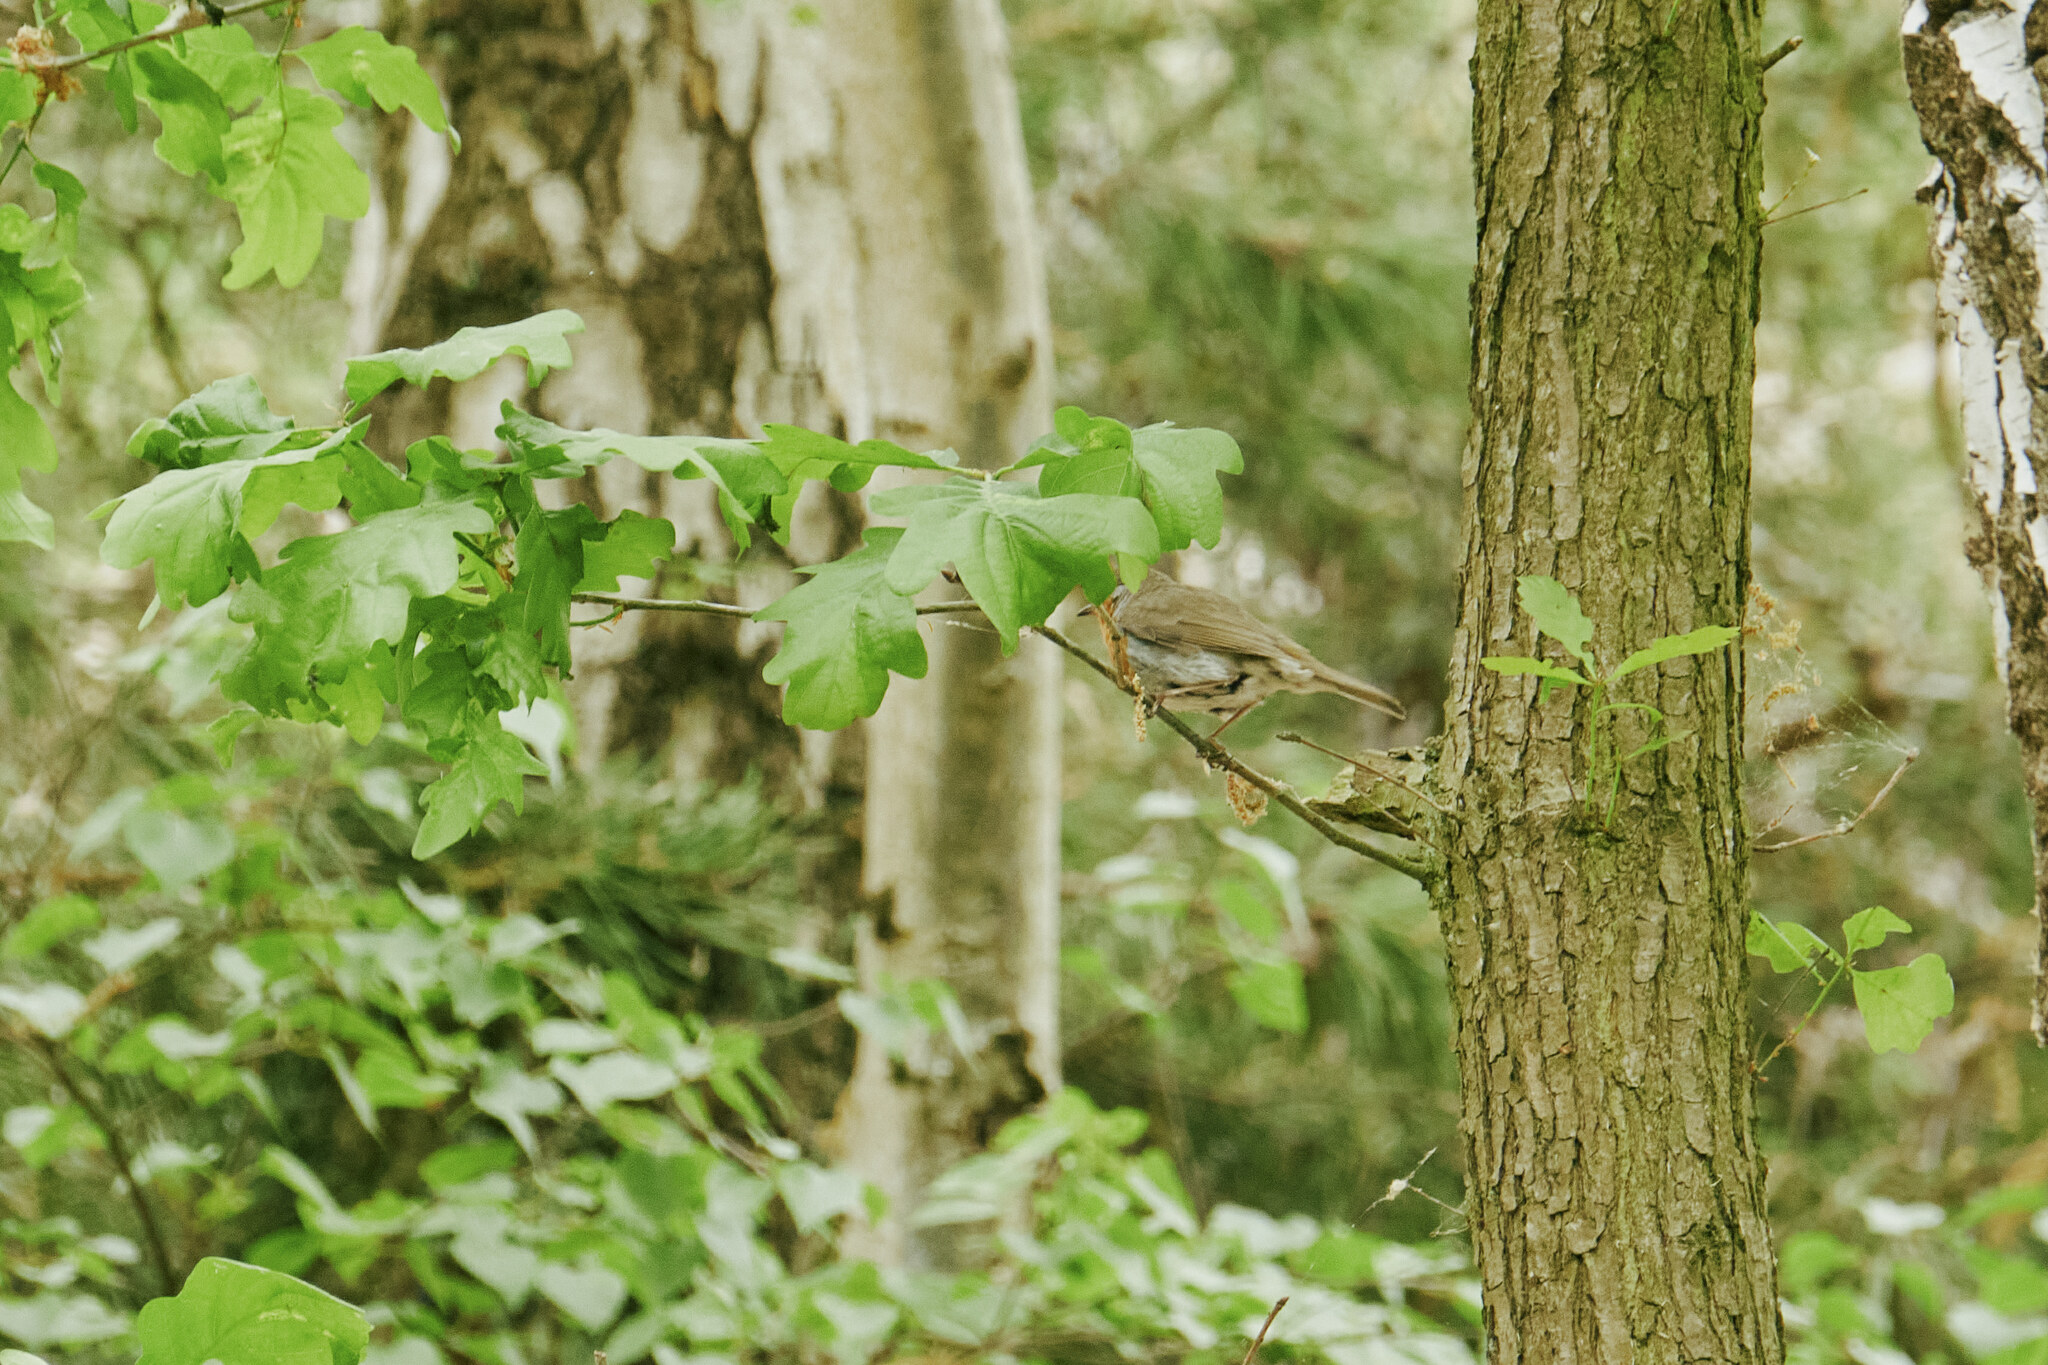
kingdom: Animalia
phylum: Chordata
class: Aves
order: Passeriformes
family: Muscicapidae
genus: Erithacus
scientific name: Erithacus rubecula
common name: European robin
